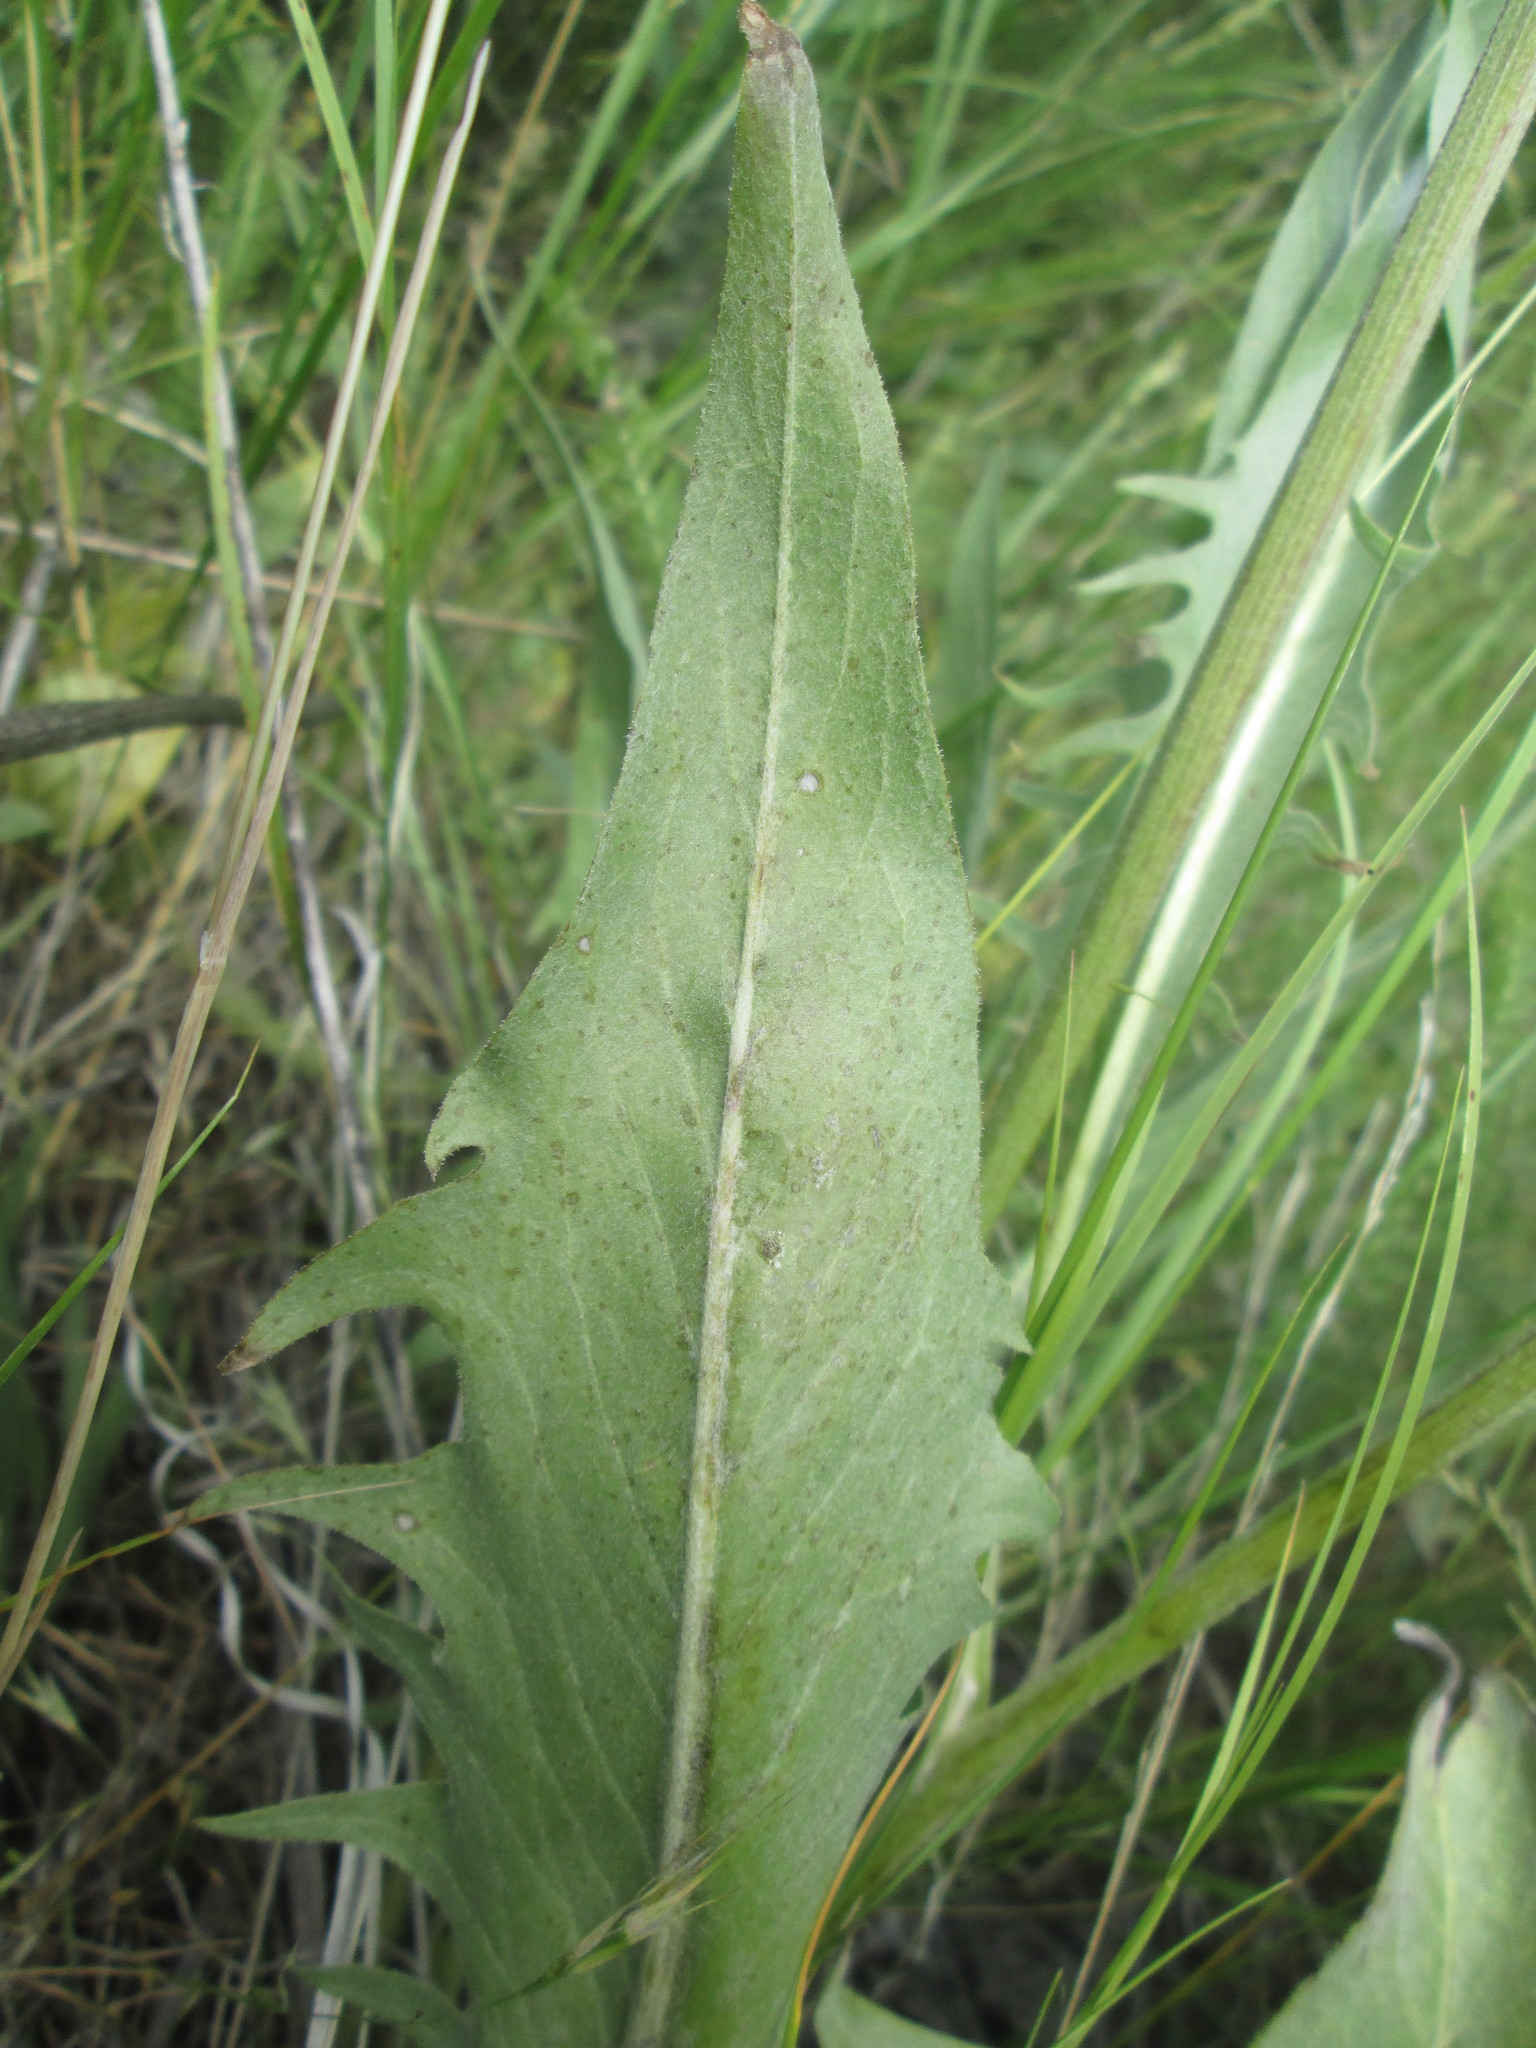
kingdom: Plantae
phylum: Tracheophyta
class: Magnoliopsida
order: Asterales
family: Asteraceae
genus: Crepis
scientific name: Crepis acuminata
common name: Longleaf hawk's-beard
